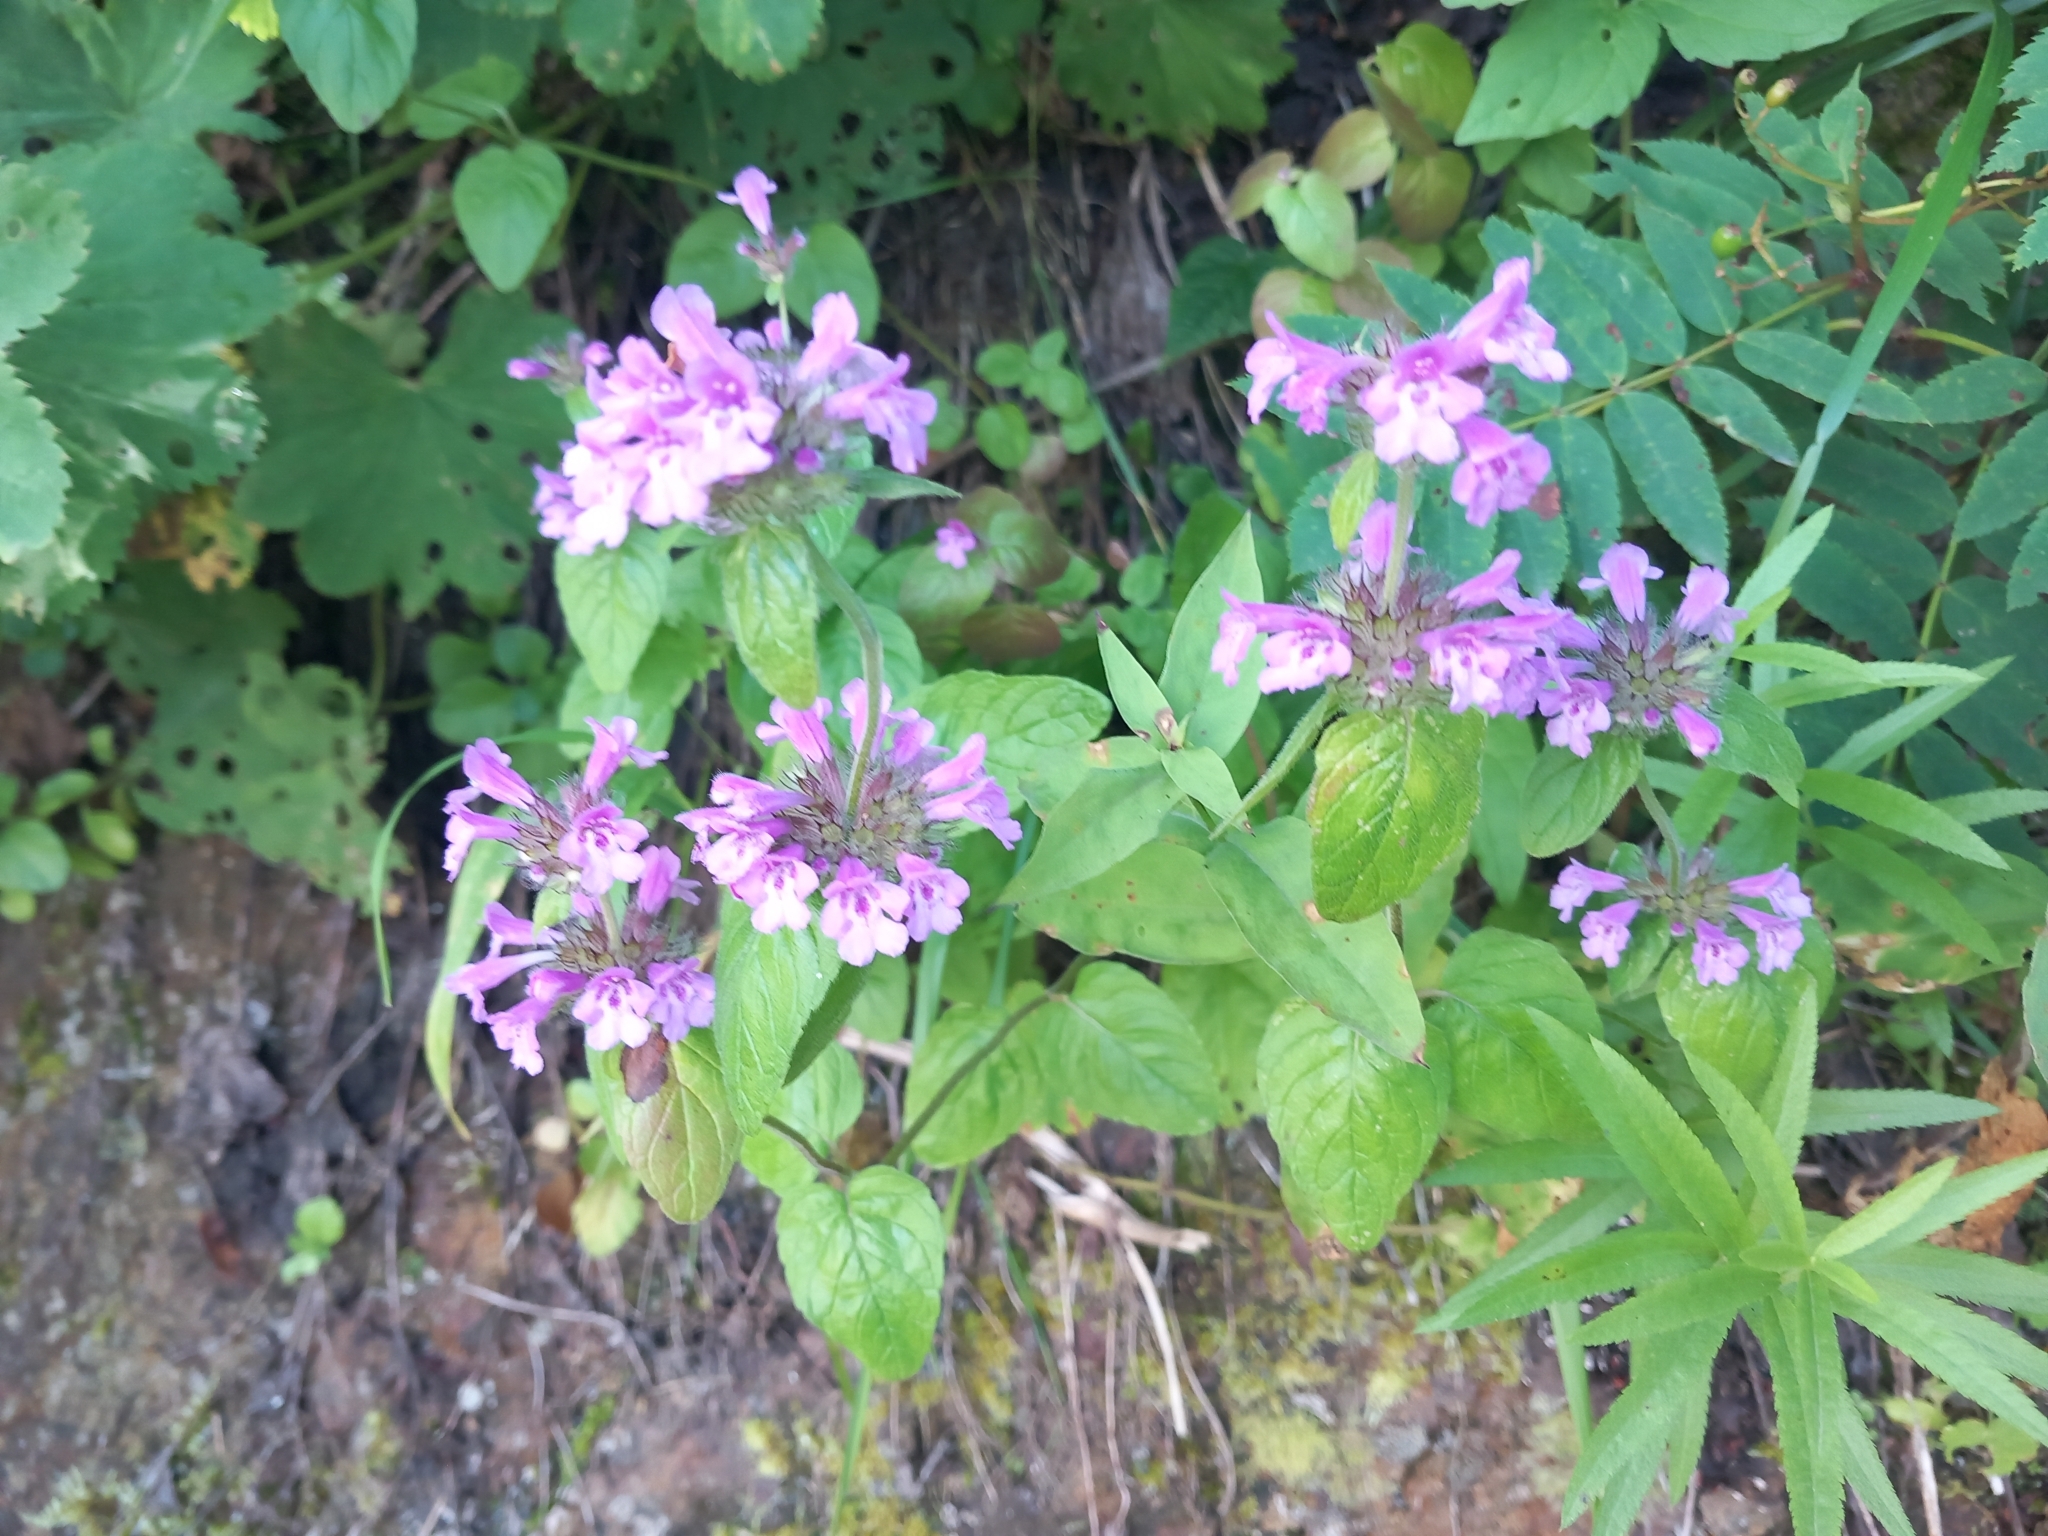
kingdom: Plantae
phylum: Tracheophyta
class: Magnoliopsida
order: Lamiales
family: Lamiaceae
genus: Clinopodium
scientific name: Clinopodium caucasicum
